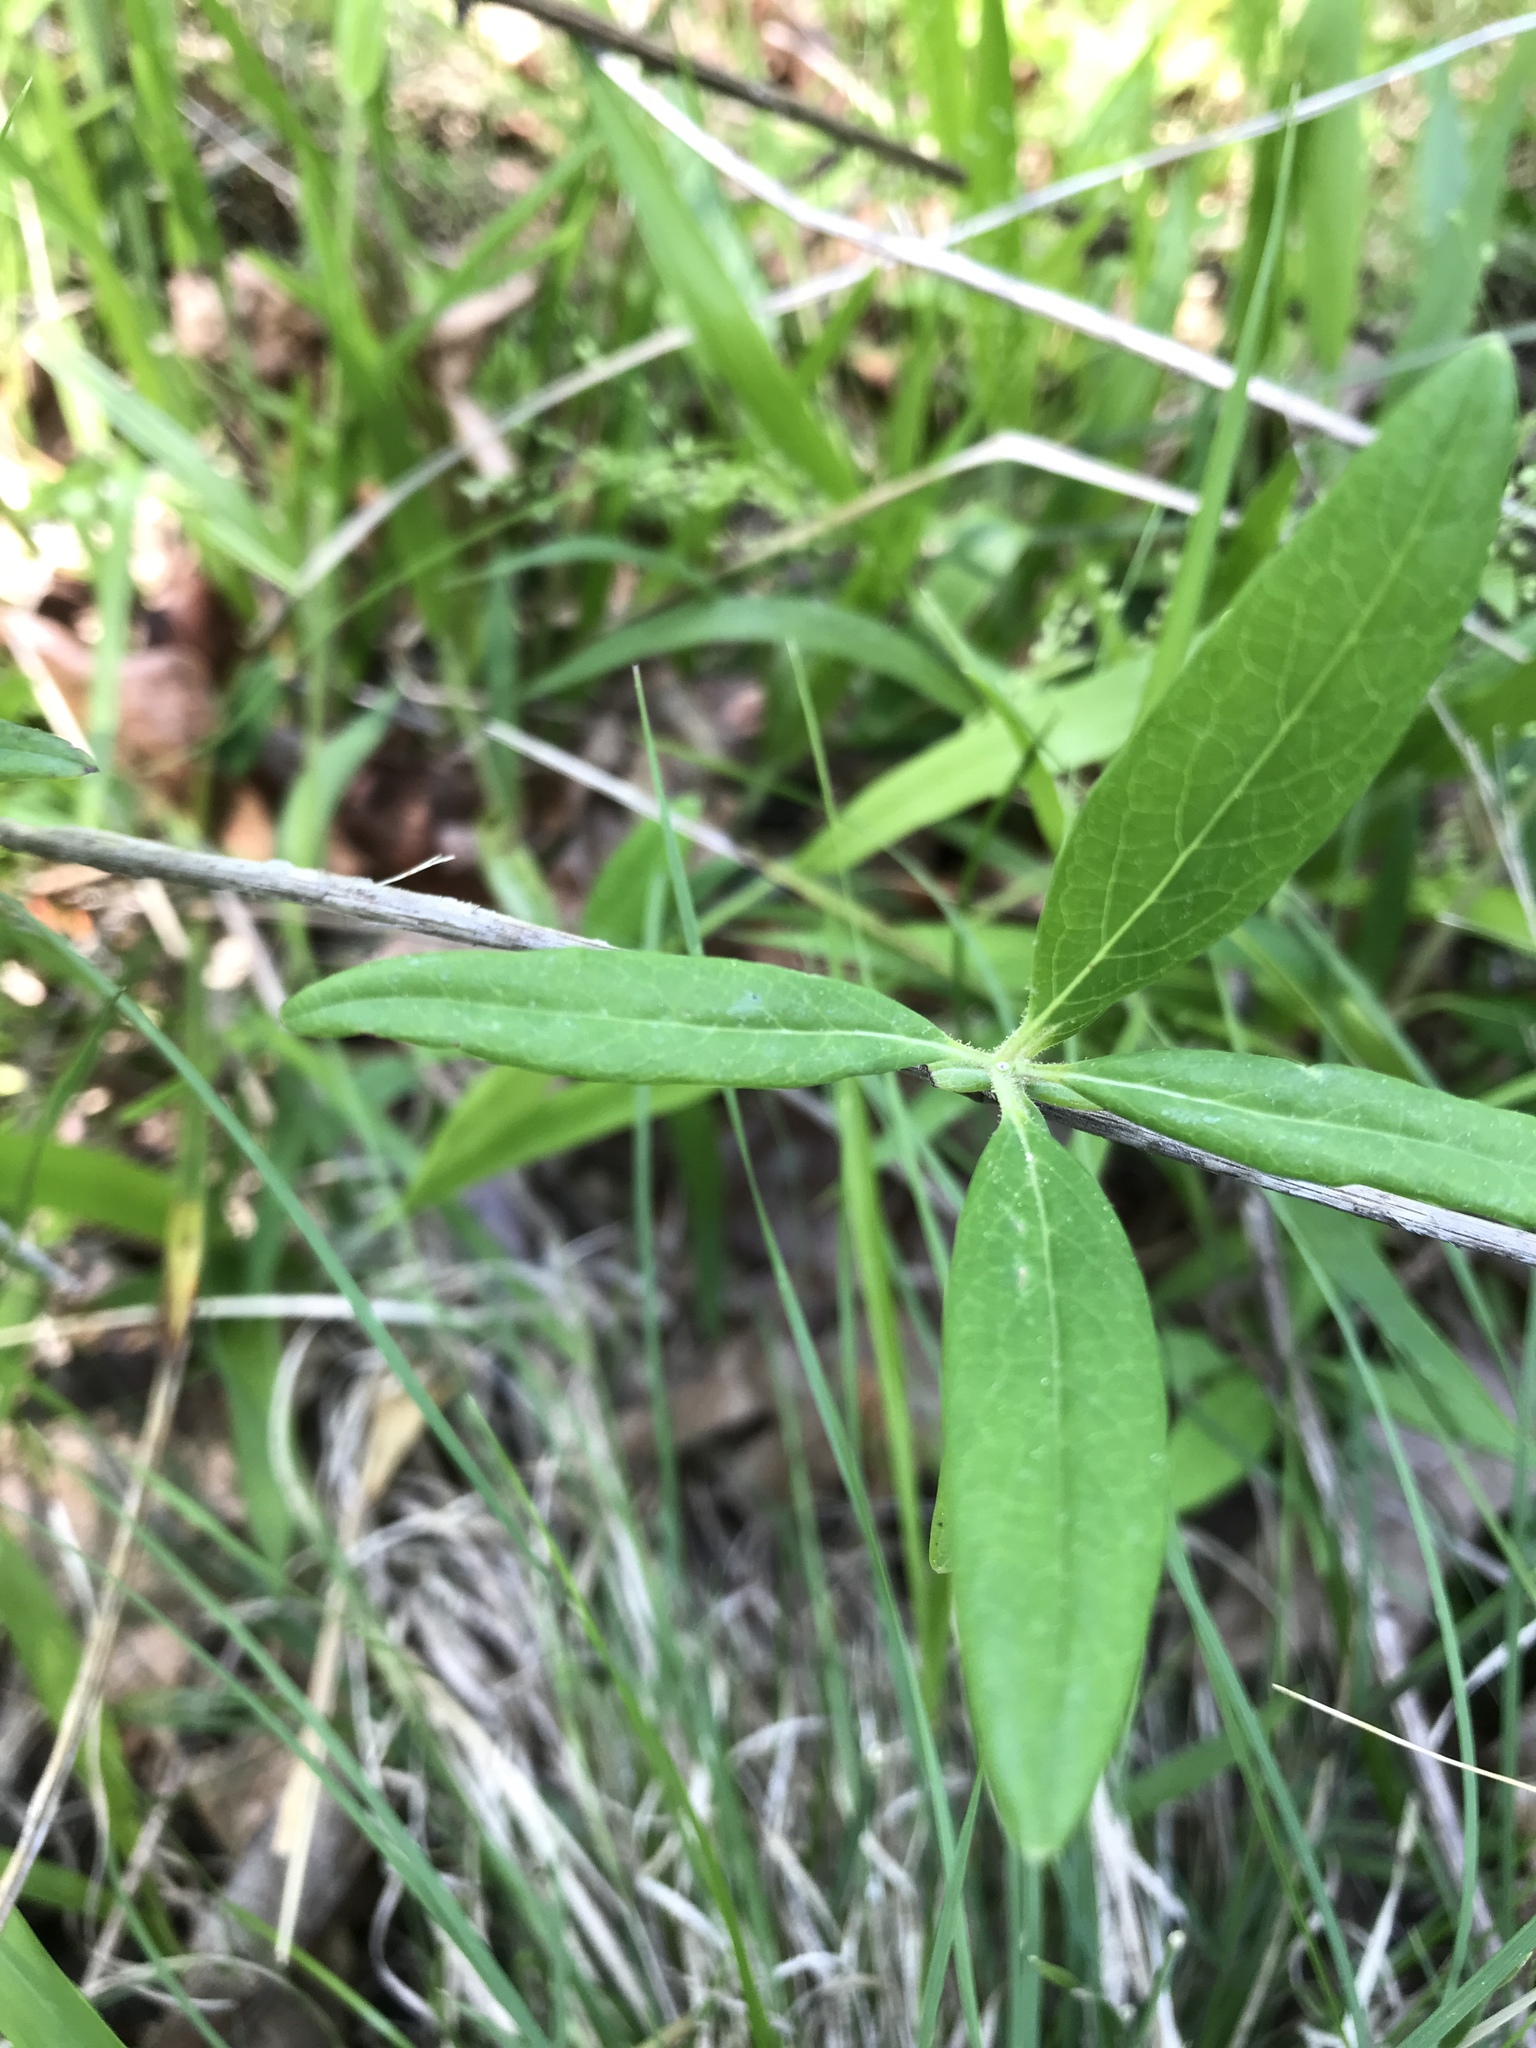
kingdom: Plantae
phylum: Tracheophyta
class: Magnoliopsida
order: Dipsacales
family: Caprifoliaceae
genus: Lonicera
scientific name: Lonicera sempervirens
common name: Coral honeysuckle
